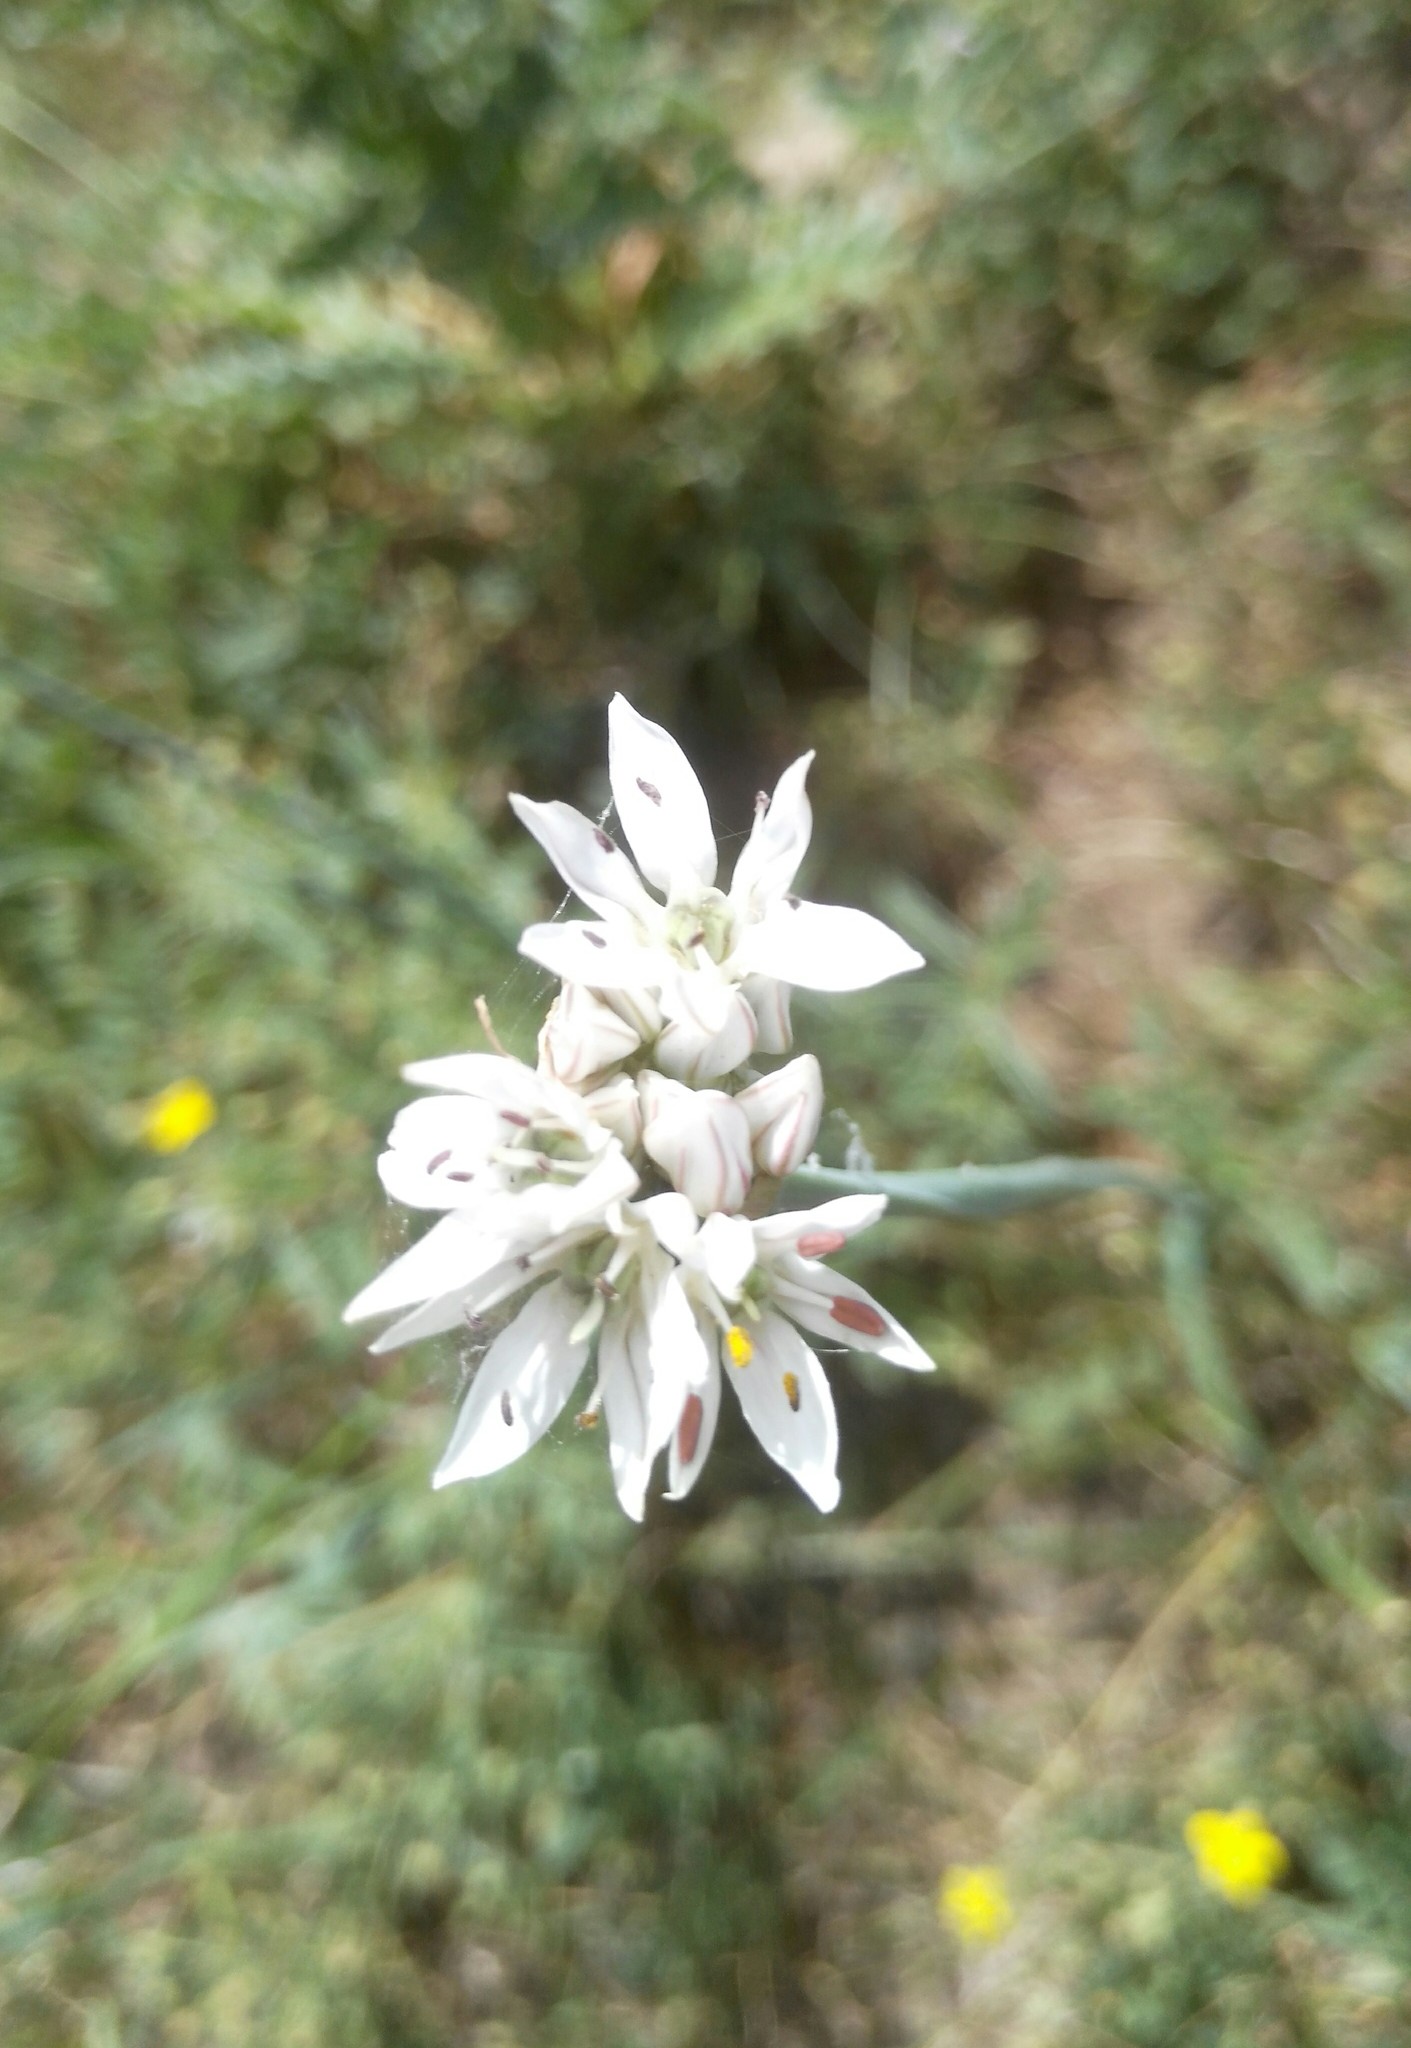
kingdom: Plantae
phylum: Tracheophyta
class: Liliopsida
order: Asparagales
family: Amaryllidaceae
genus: Allium
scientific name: Allium ramosum
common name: Fragrant garlic
